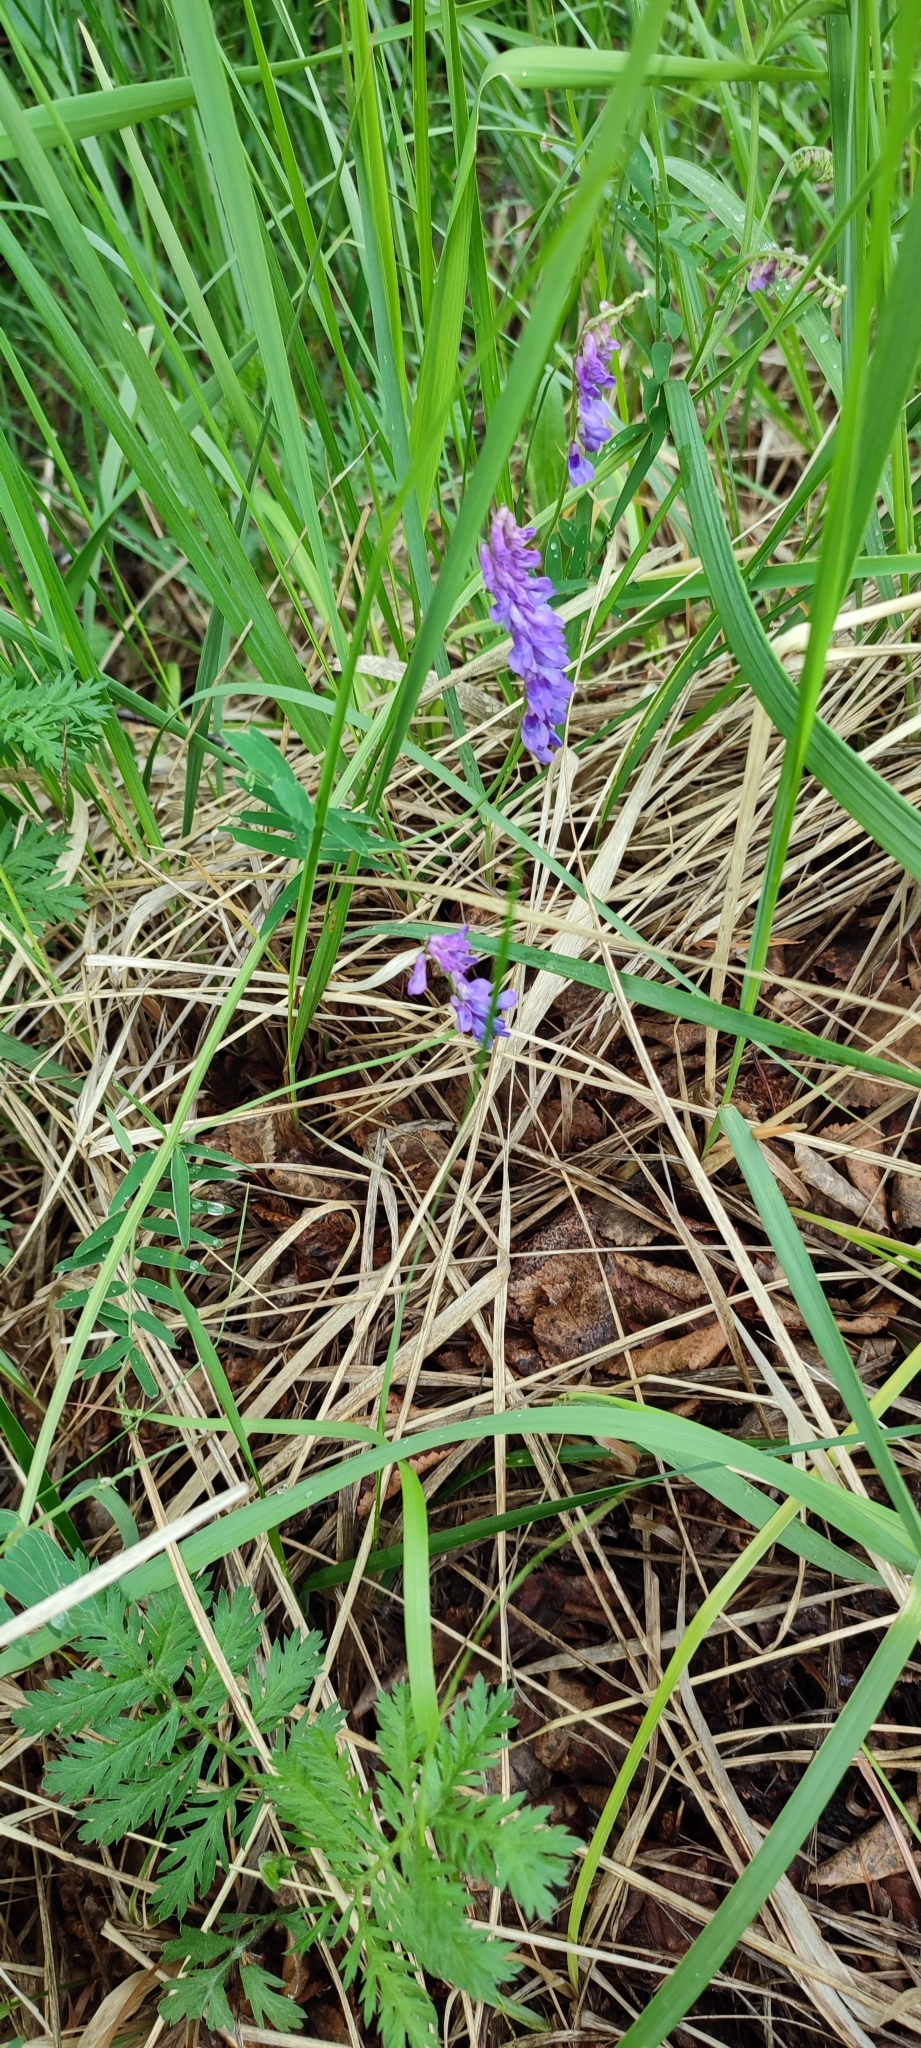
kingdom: Plantae
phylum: Tracheophyta
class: Magnoliopsida
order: Fabales
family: Fabaceae
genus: Vicia
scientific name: Vicia cracca
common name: Bird vetch
